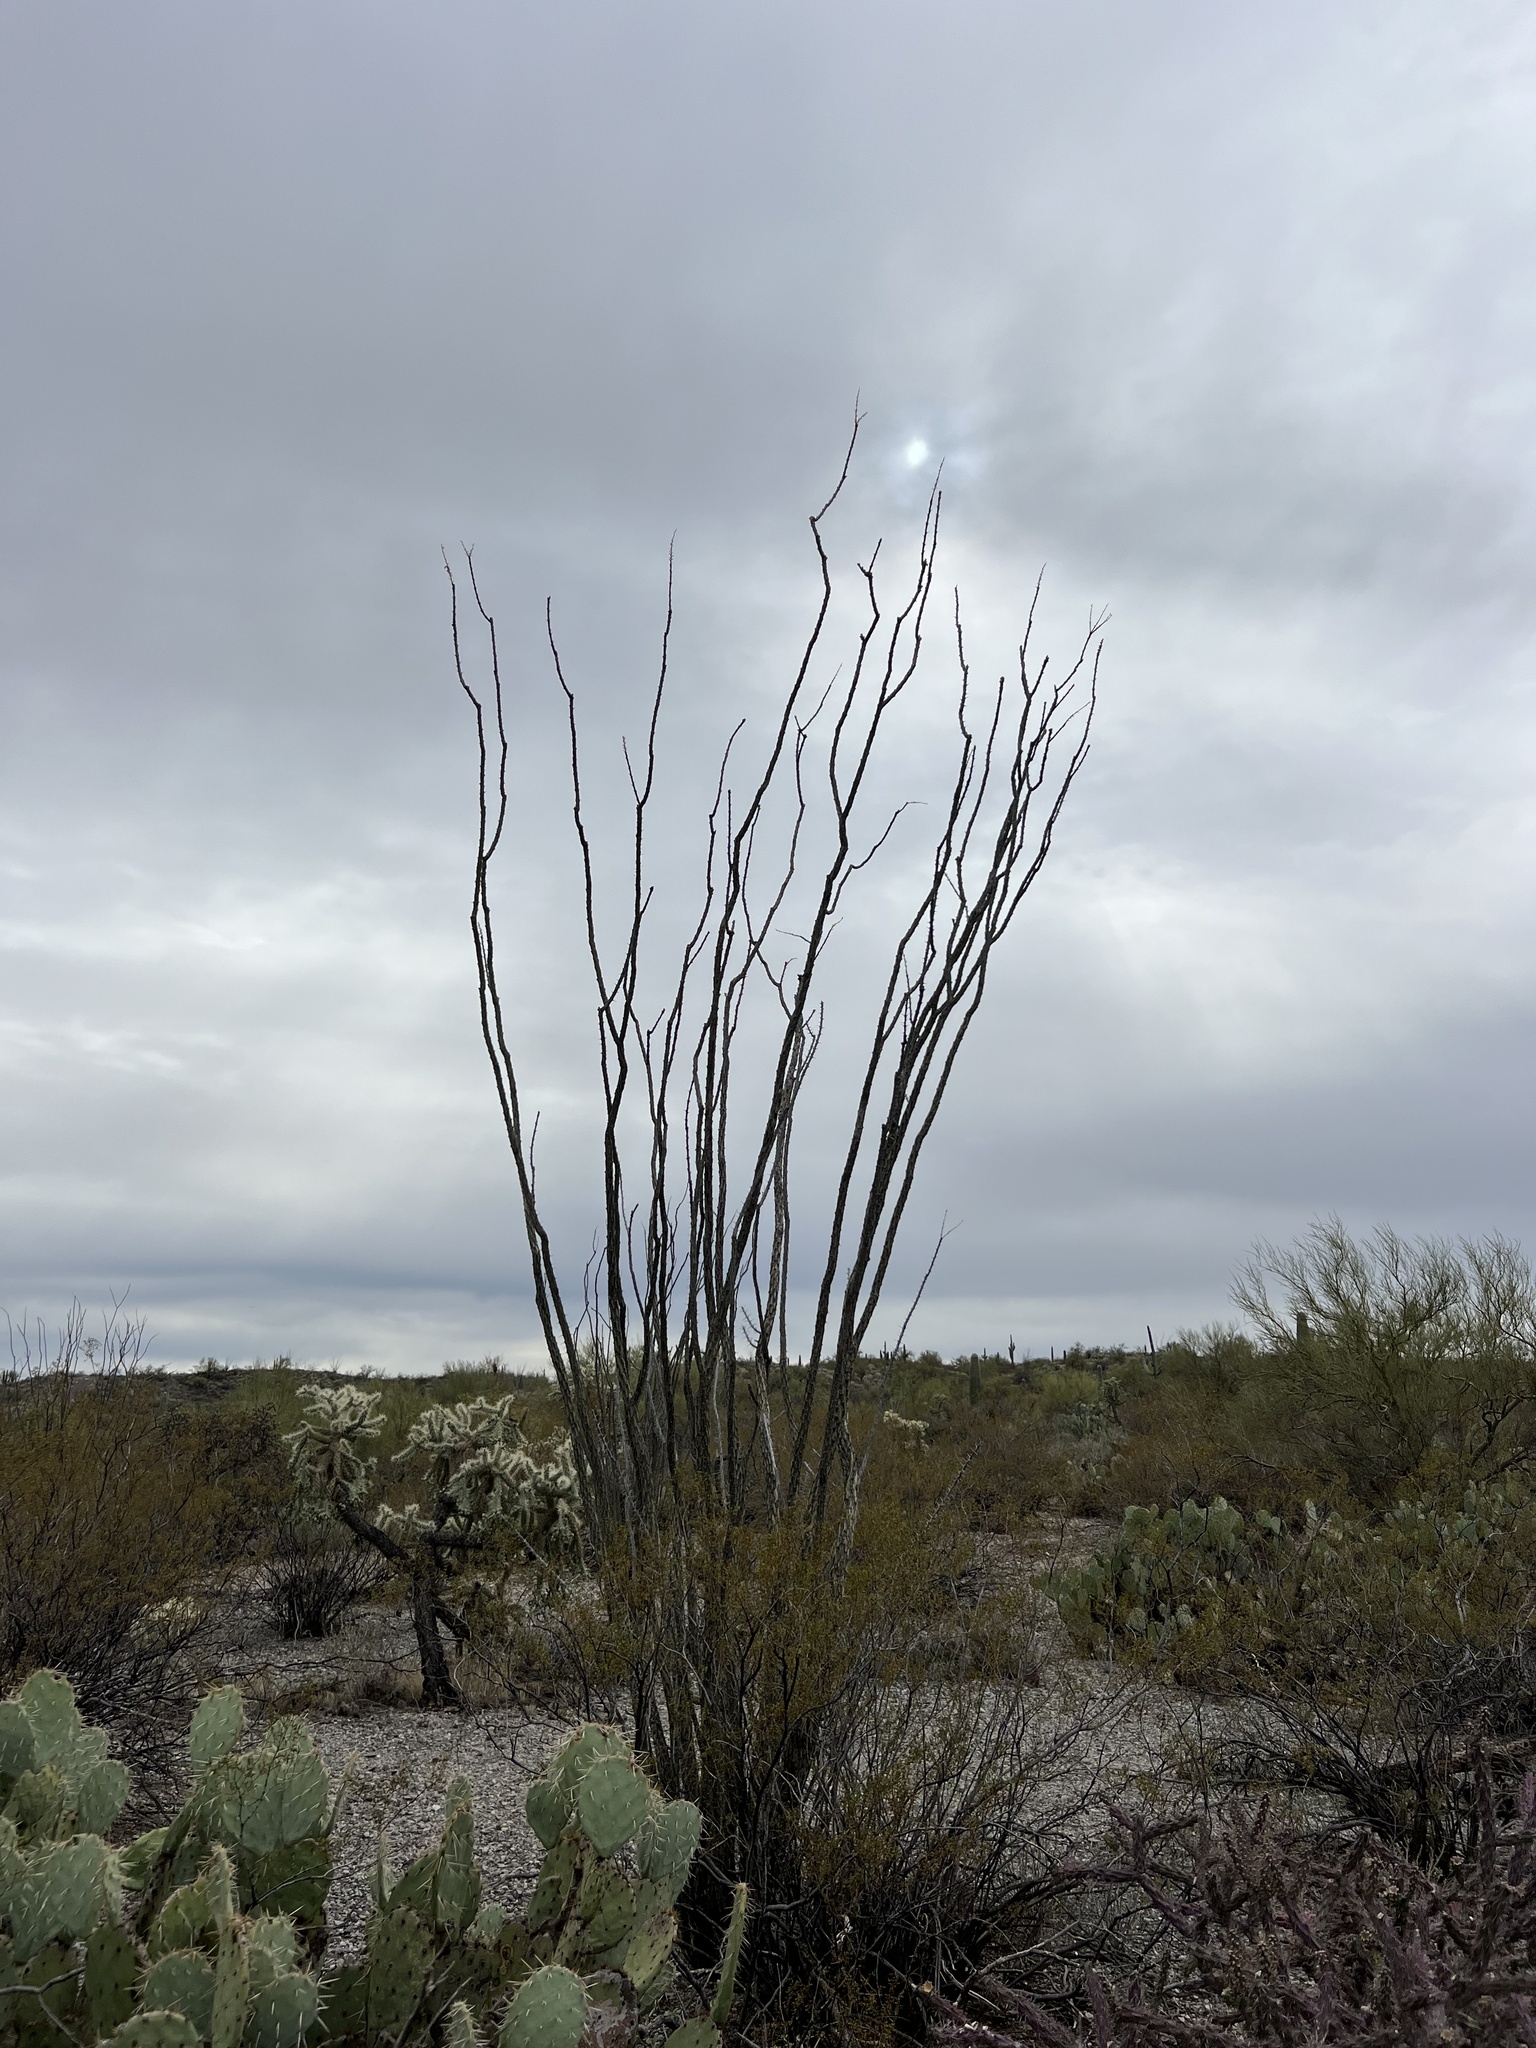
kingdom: Plantae
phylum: Tracheophyta
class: Magnoliopsida
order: Ericales
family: Fouquieriaceae
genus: Fouquieria
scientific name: Fouquieria splendens
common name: Vine-cactus
